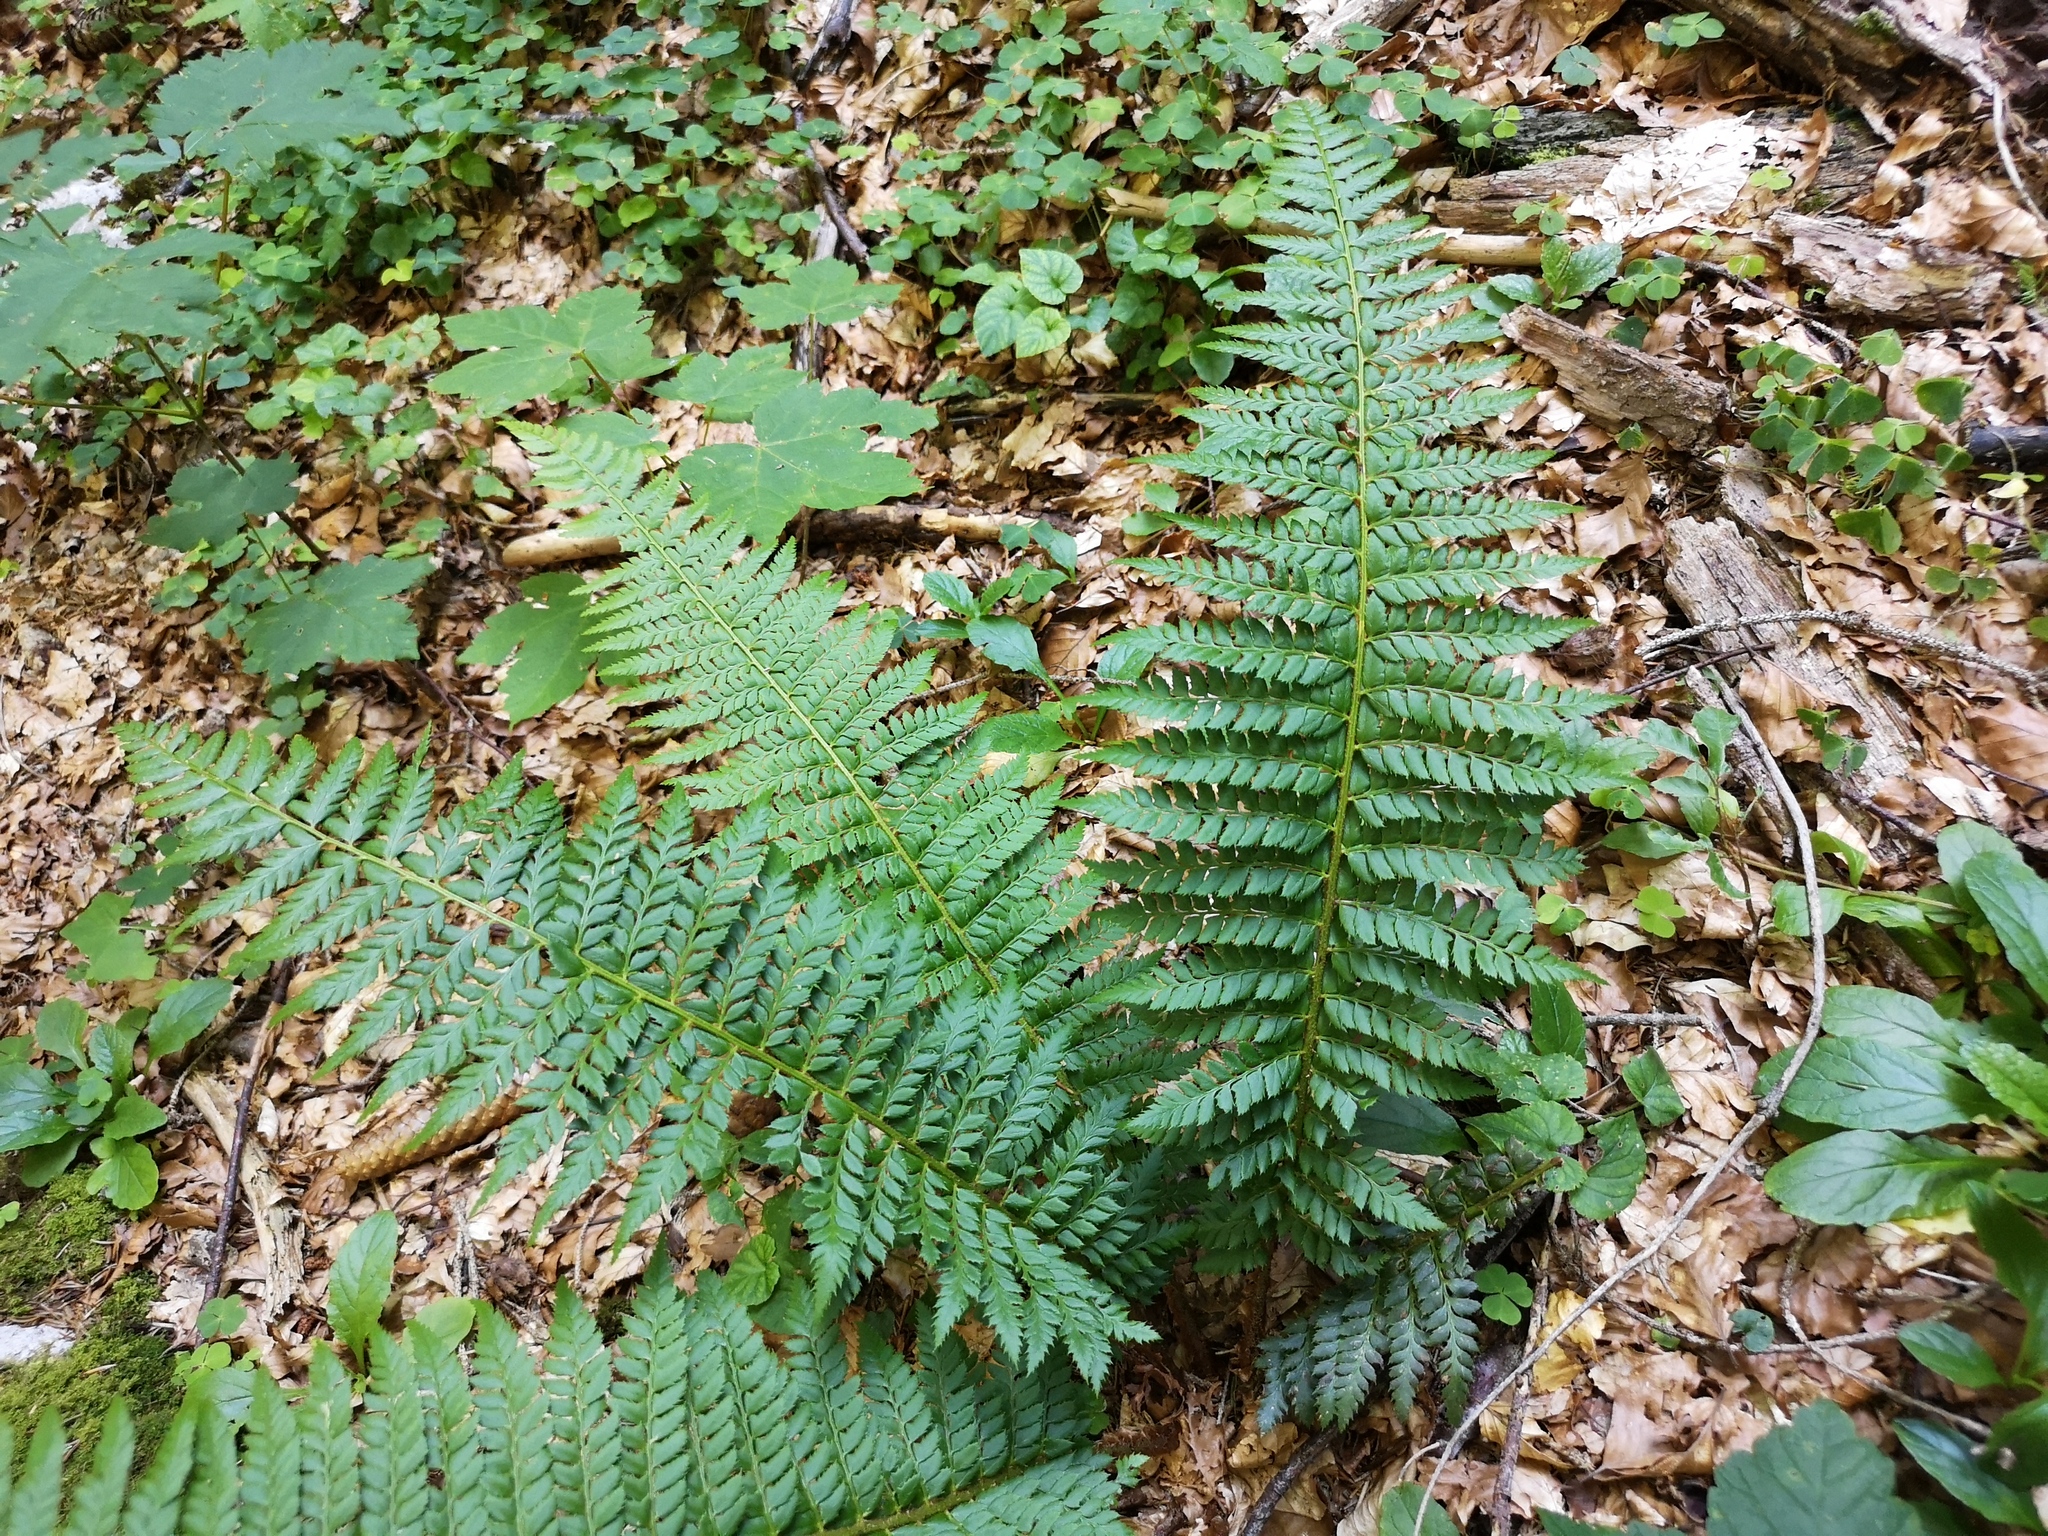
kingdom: Plantae
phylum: Tracheophyta
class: Polypodiopsida
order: Polypodiales
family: Dryopteridaceae
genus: Polystichum
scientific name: Polystichum aculeatum
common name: Hard shield-fern
